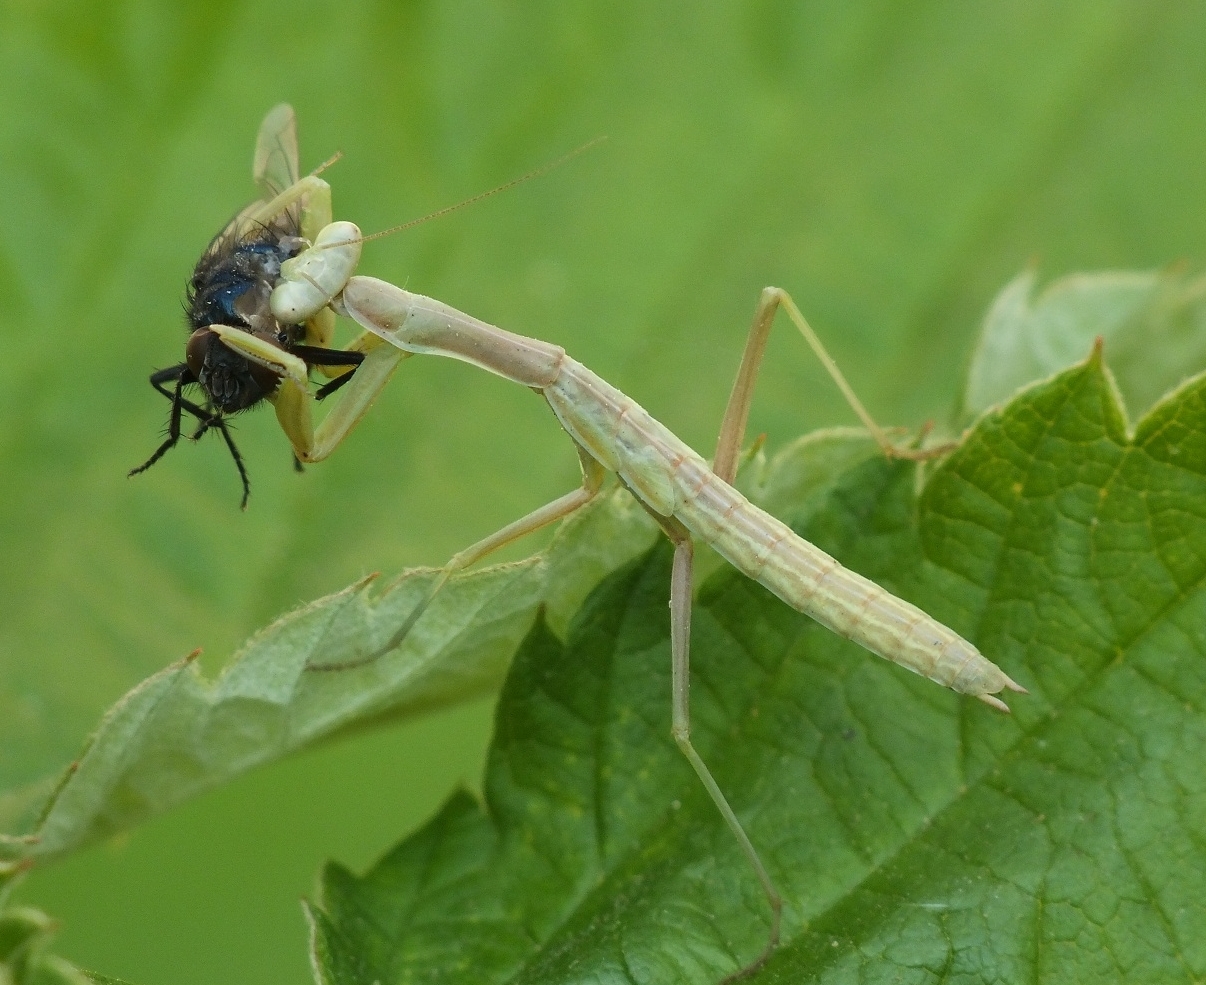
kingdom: Animalia
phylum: Arthropoda
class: Insecta
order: Mantodea
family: Eremiaphilidae
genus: Iris
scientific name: Iris polystictica
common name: Dot-winged mantis
